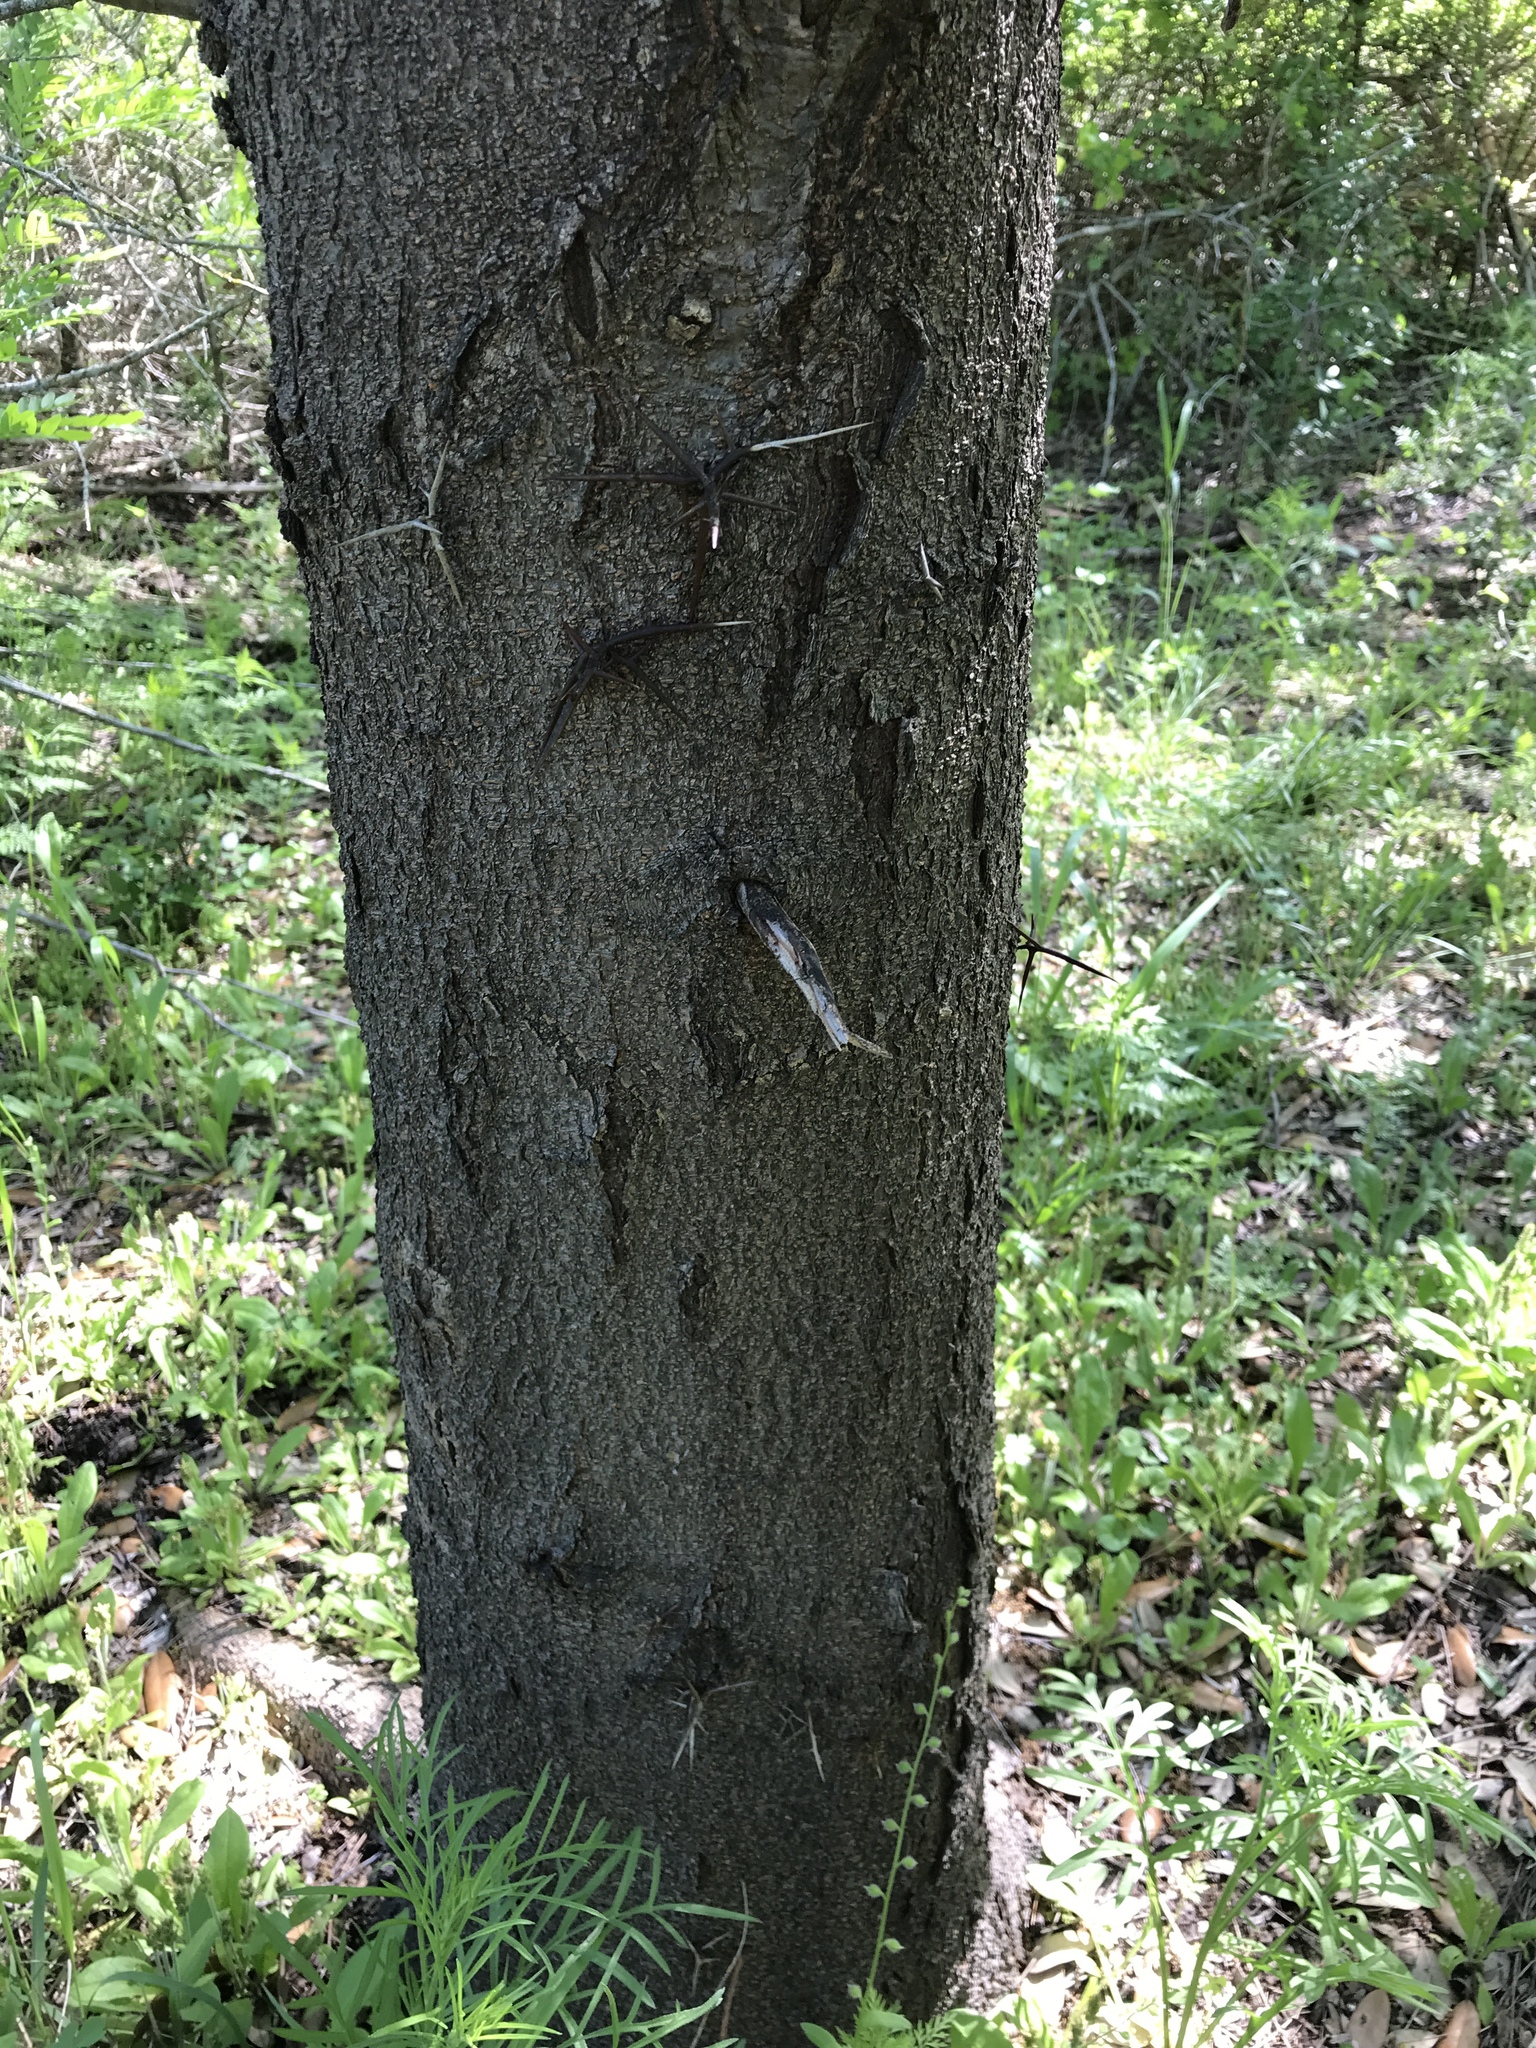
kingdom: Plantae
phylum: Tracheophyta
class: Magnoliopsida
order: Fabales
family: Fabaceae
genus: Gleditsia
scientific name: Gleditsia triacanthos
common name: Common honeylocust
